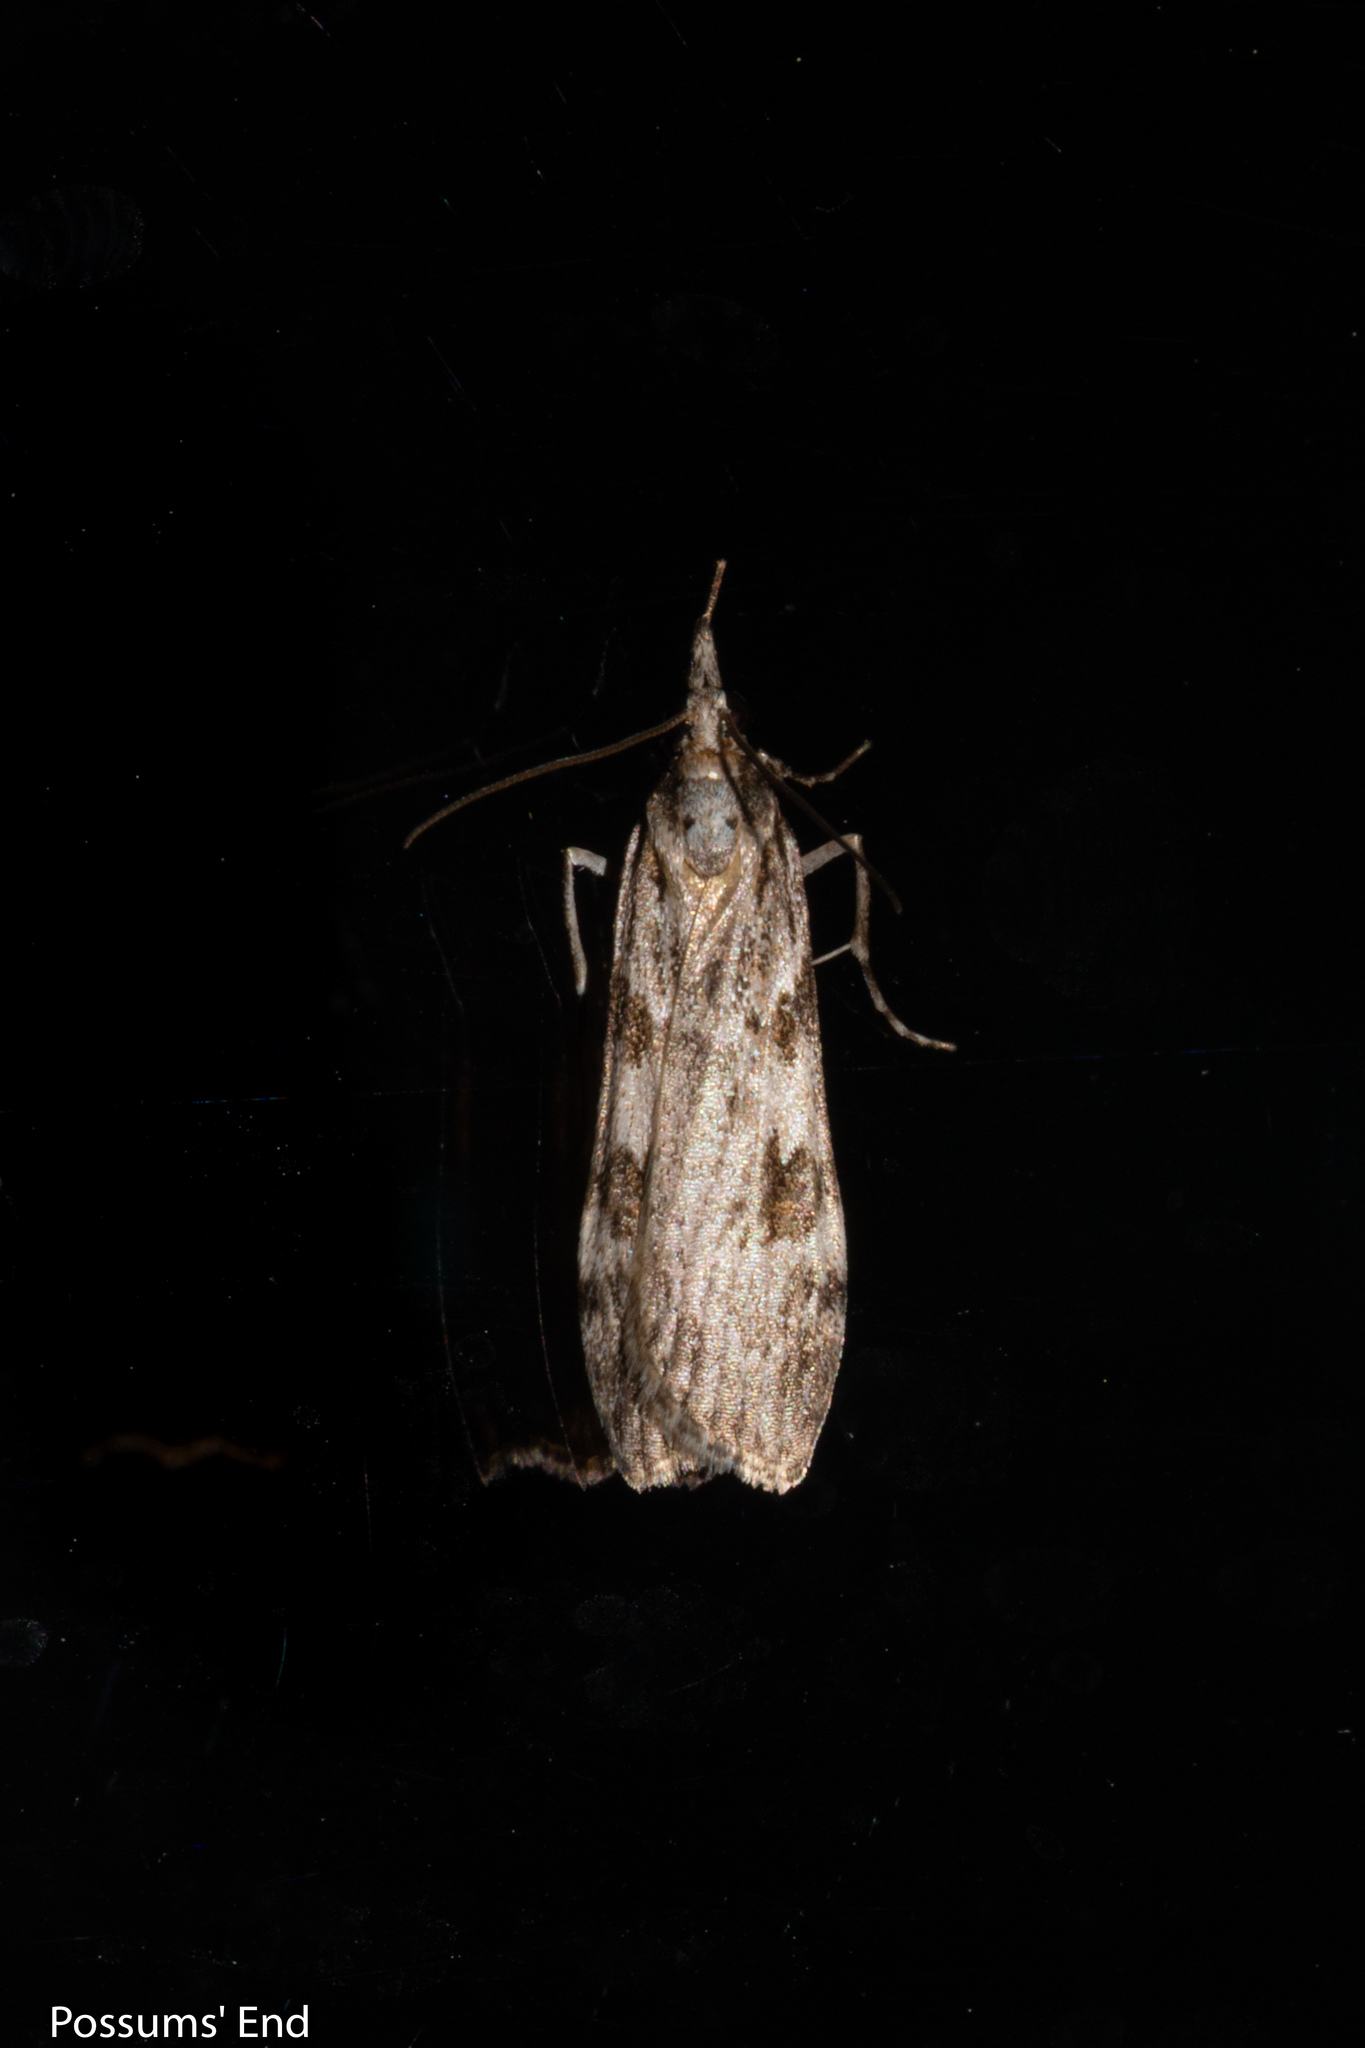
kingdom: Animalia
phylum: Arthropoda
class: Insecta
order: Lepidoptera
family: Crambidae
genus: Scoparia
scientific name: Scoparia halopis
